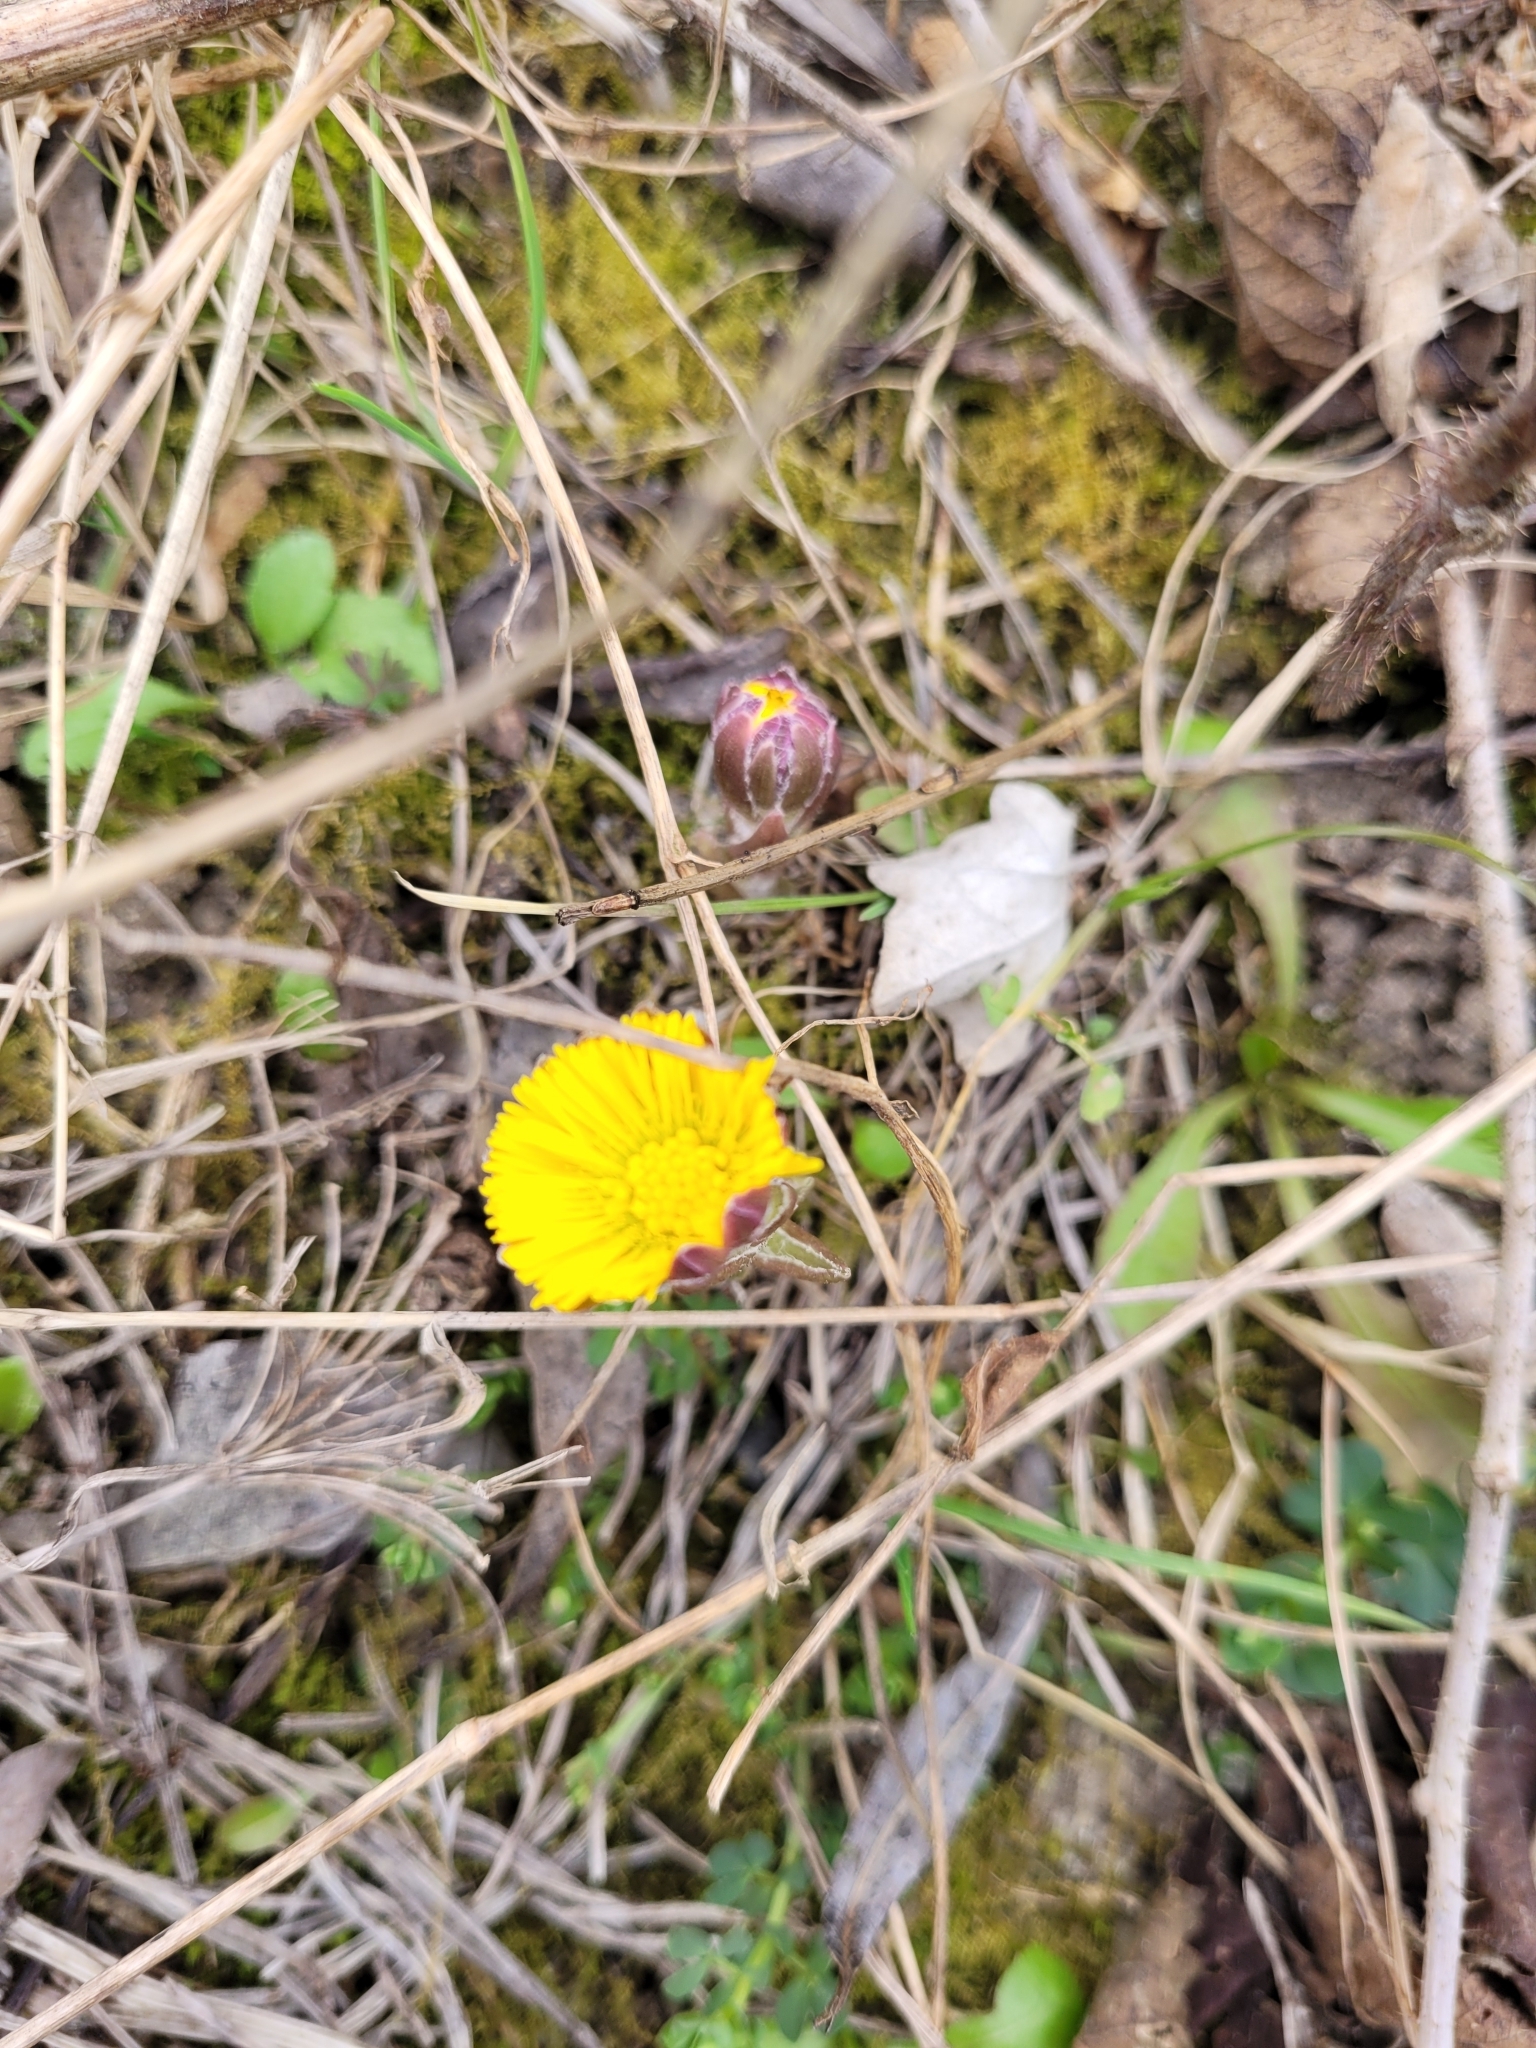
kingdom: Plantae
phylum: Tracheophyta
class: Magnoliopsida
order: Asterales
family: Asteraceae
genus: Tussilago
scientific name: Tussilago farfara
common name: Coltsfoot
